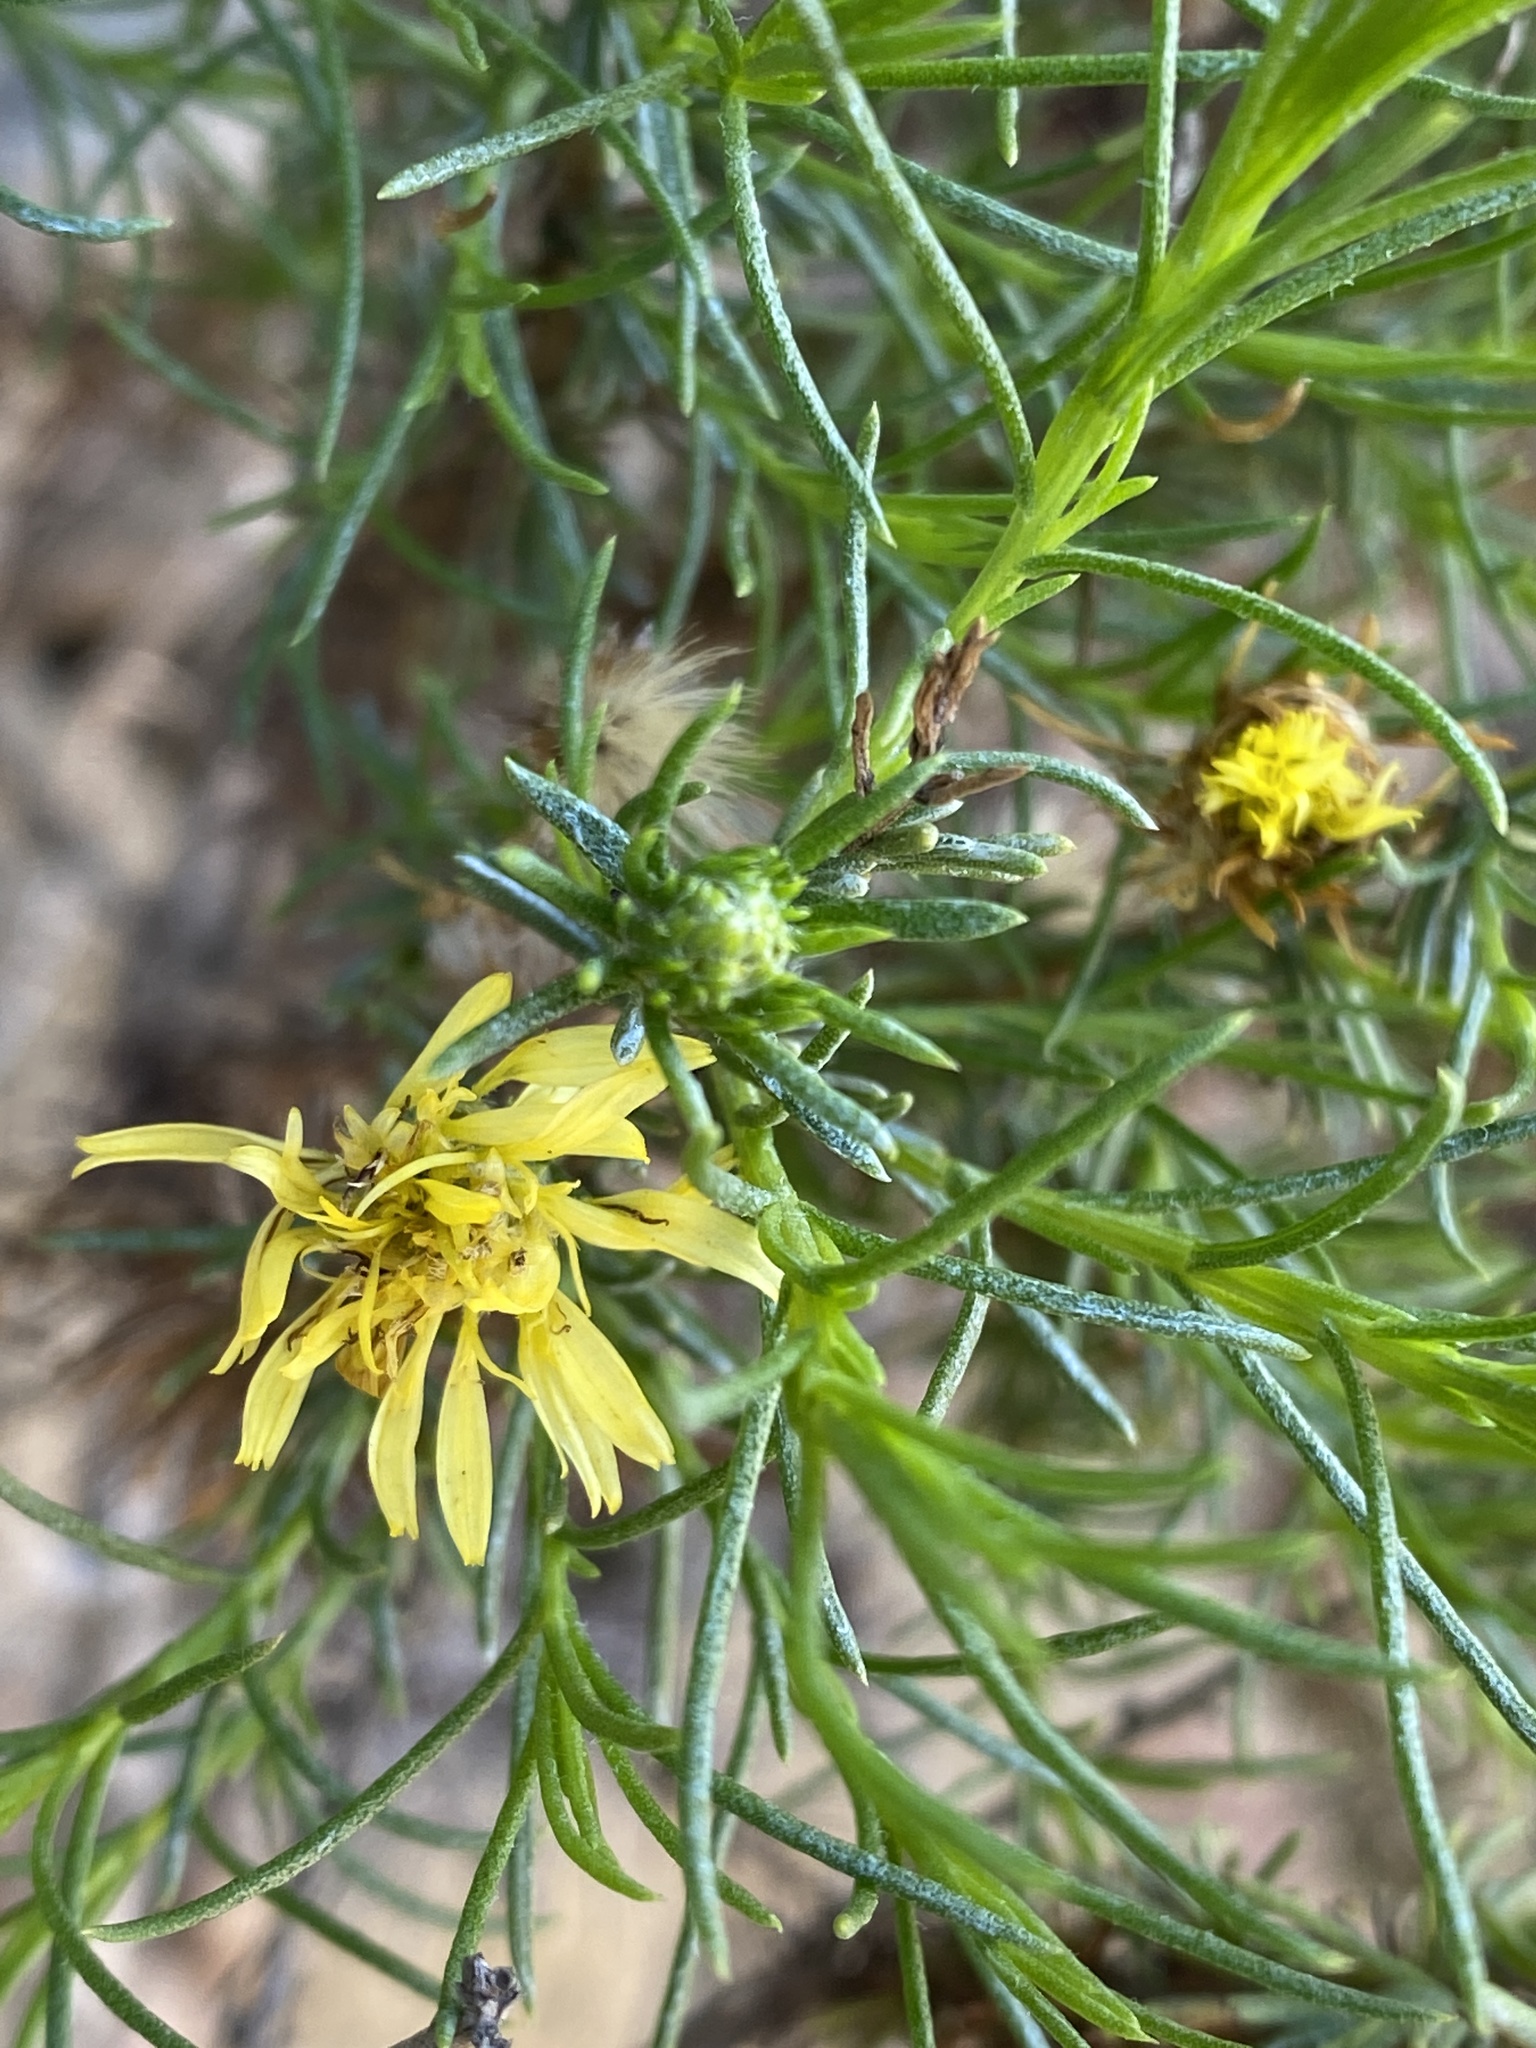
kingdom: Plantae
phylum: Tracheophyta
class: Magnoliopsida
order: Asterales
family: Asteraceae
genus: Ericameria
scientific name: Ericameria pinifolia
